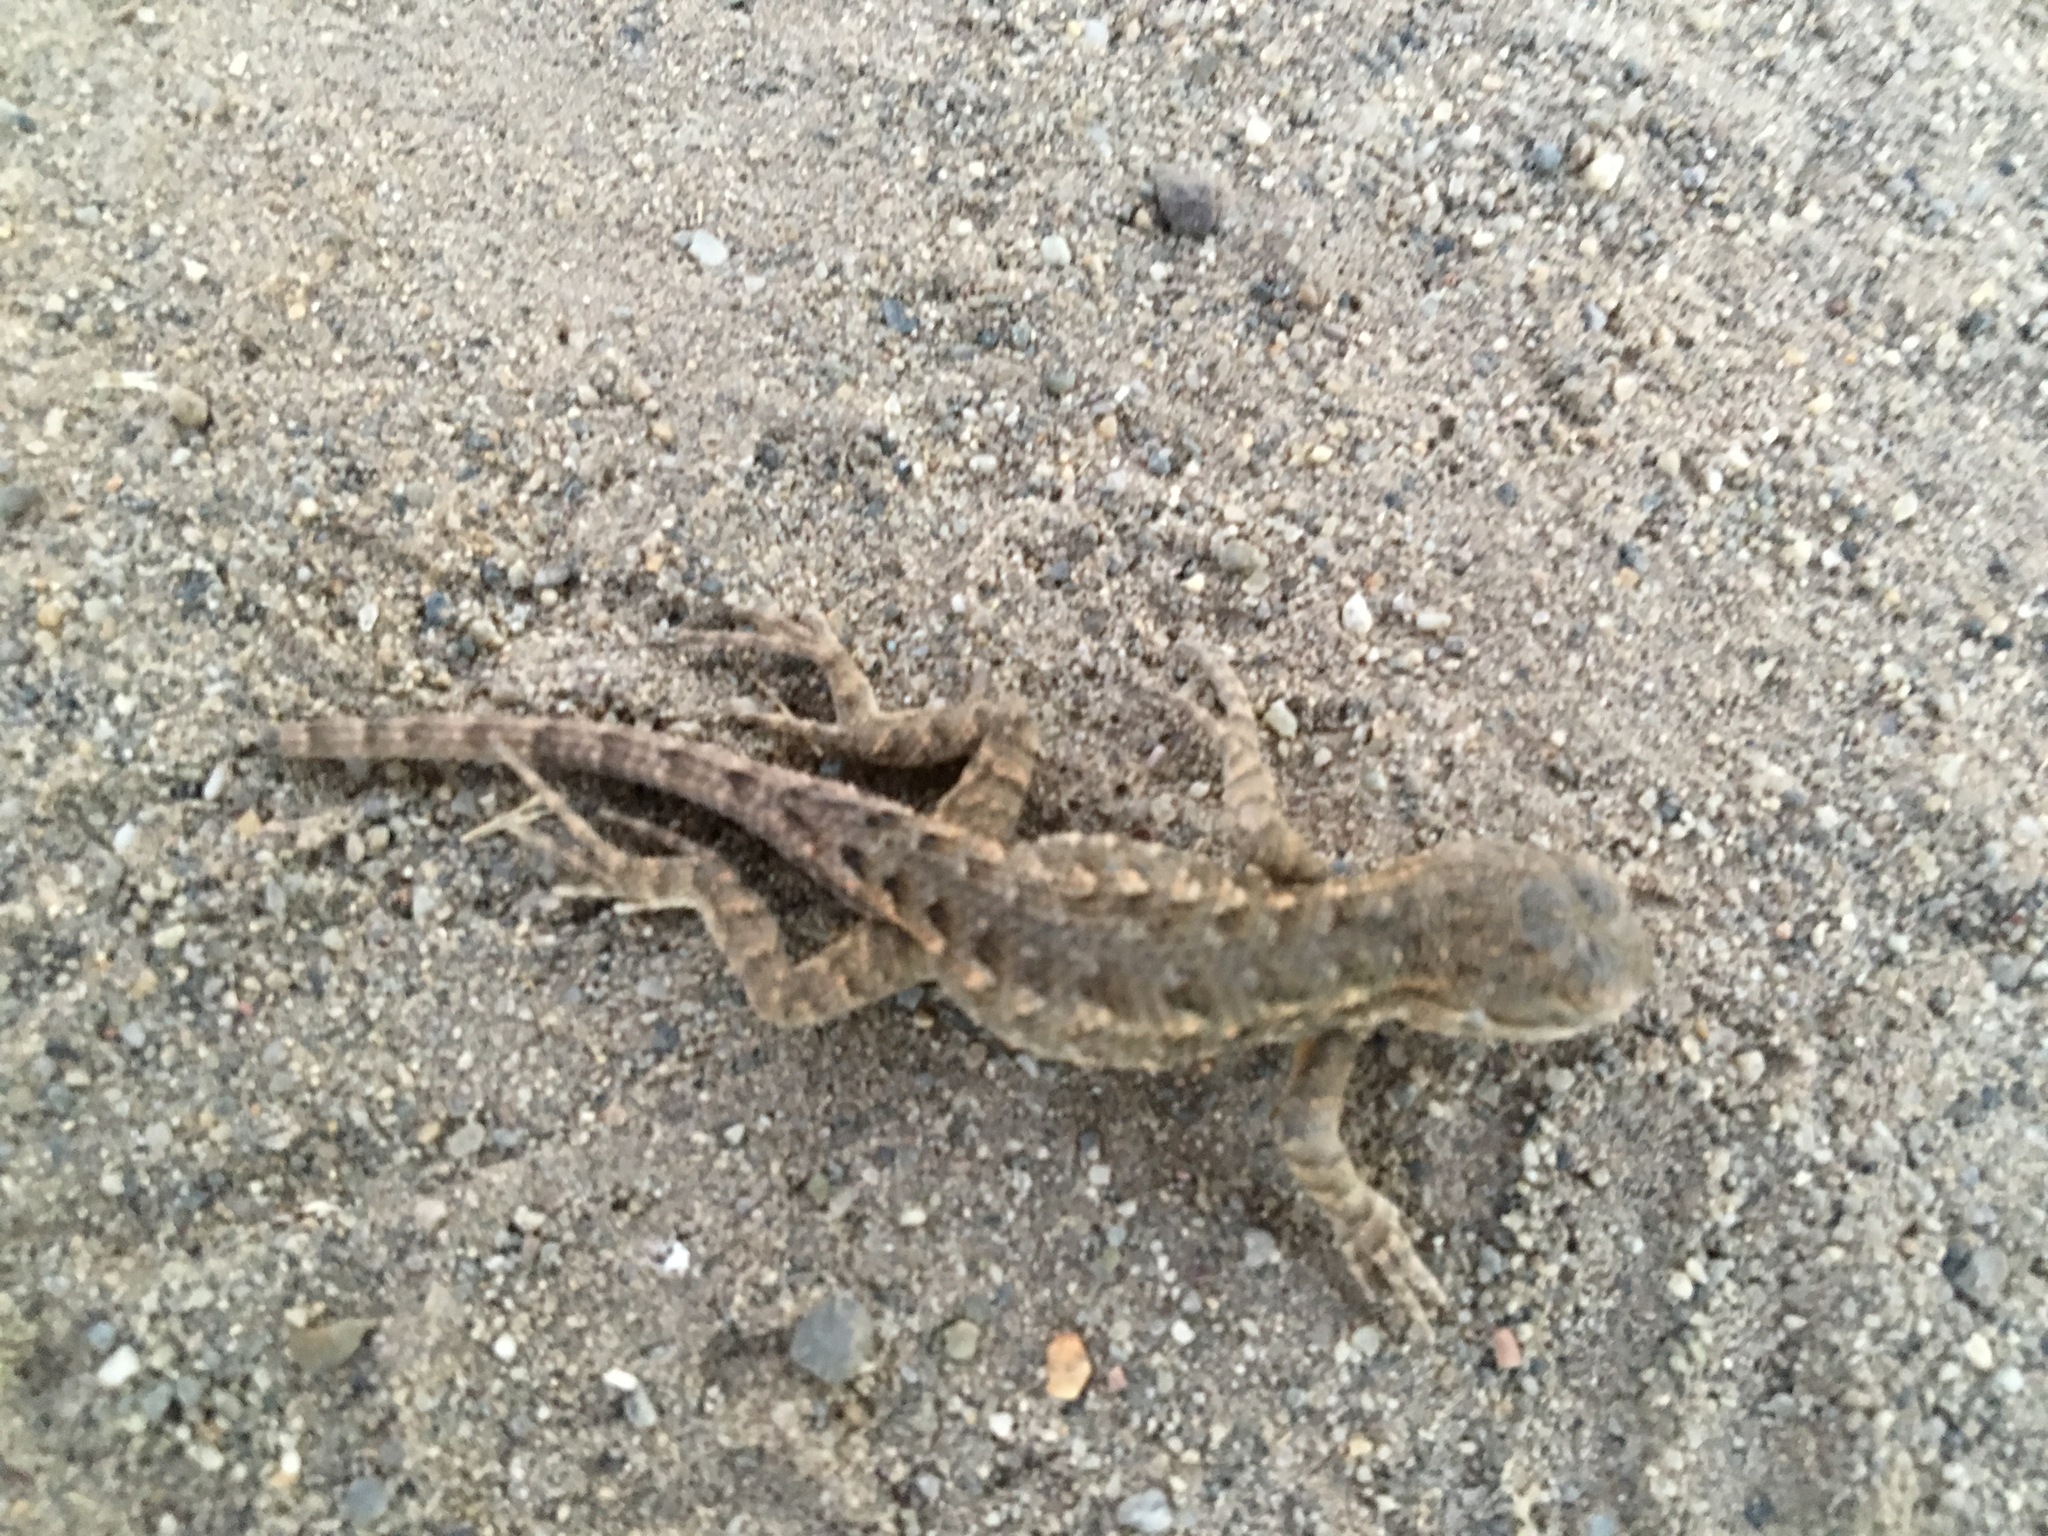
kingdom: Animalia
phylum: Chordata
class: Squamata
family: Phrynosomatidae
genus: Sceloporus
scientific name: Sceloporus occidentalis
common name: Western fence lizard
